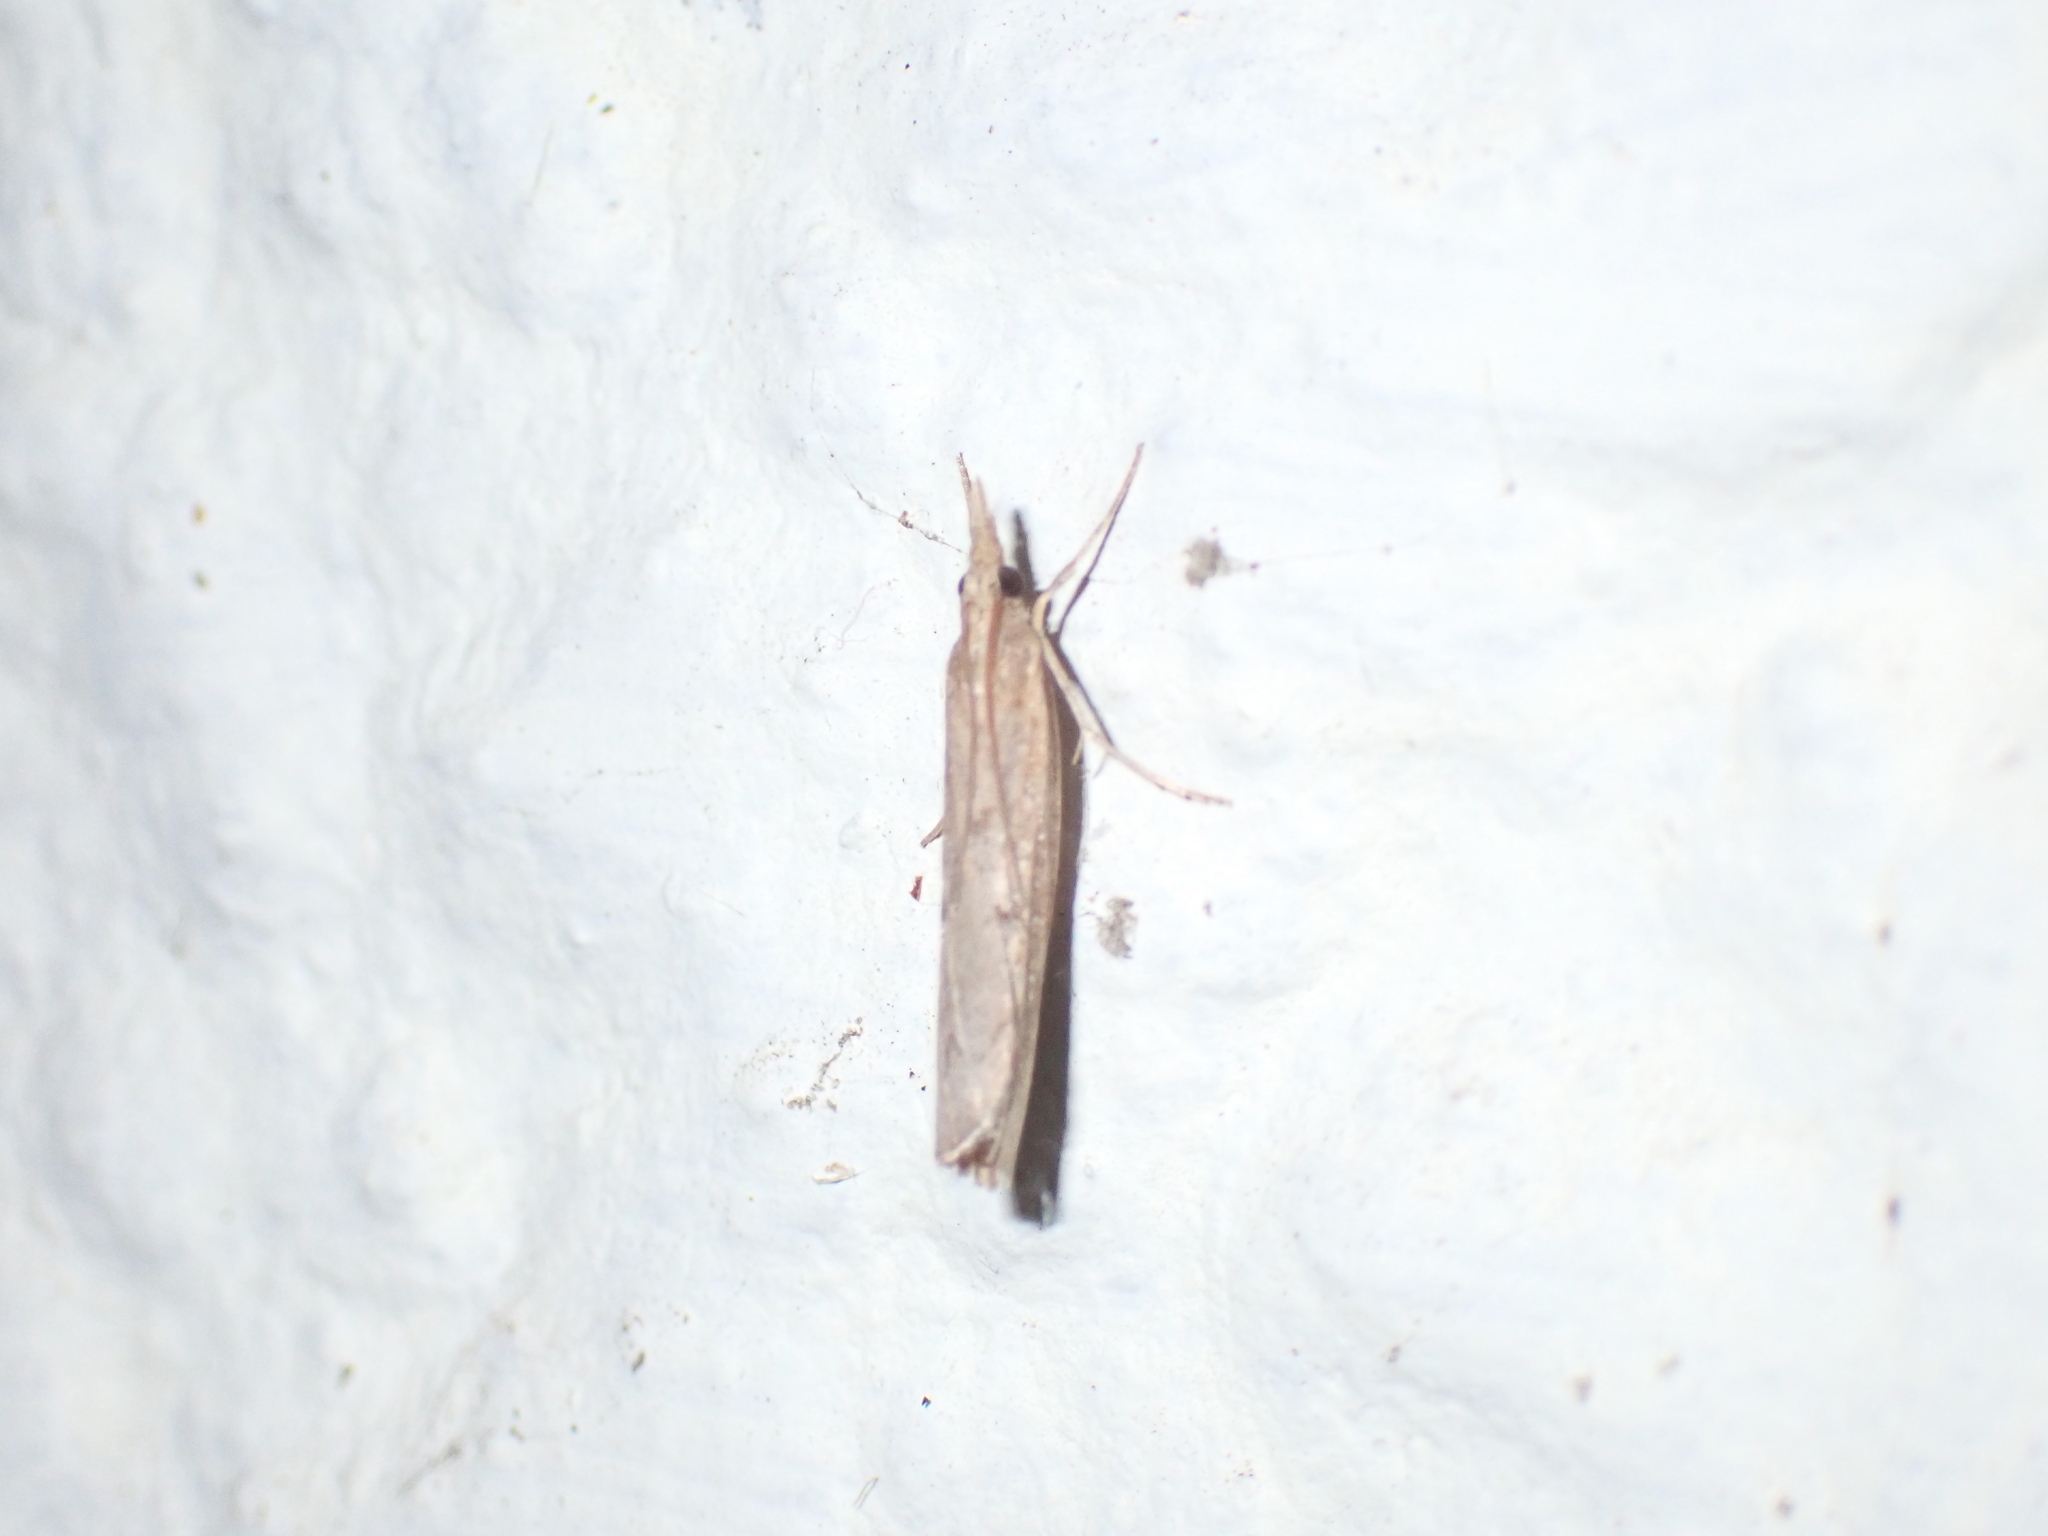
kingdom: Animalia
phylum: Arthropoda
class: Insecta
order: Lepidoptera
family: Crambidae
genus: Pediasia
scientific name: Pediasia contaminella
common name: Waste grass-veneer
